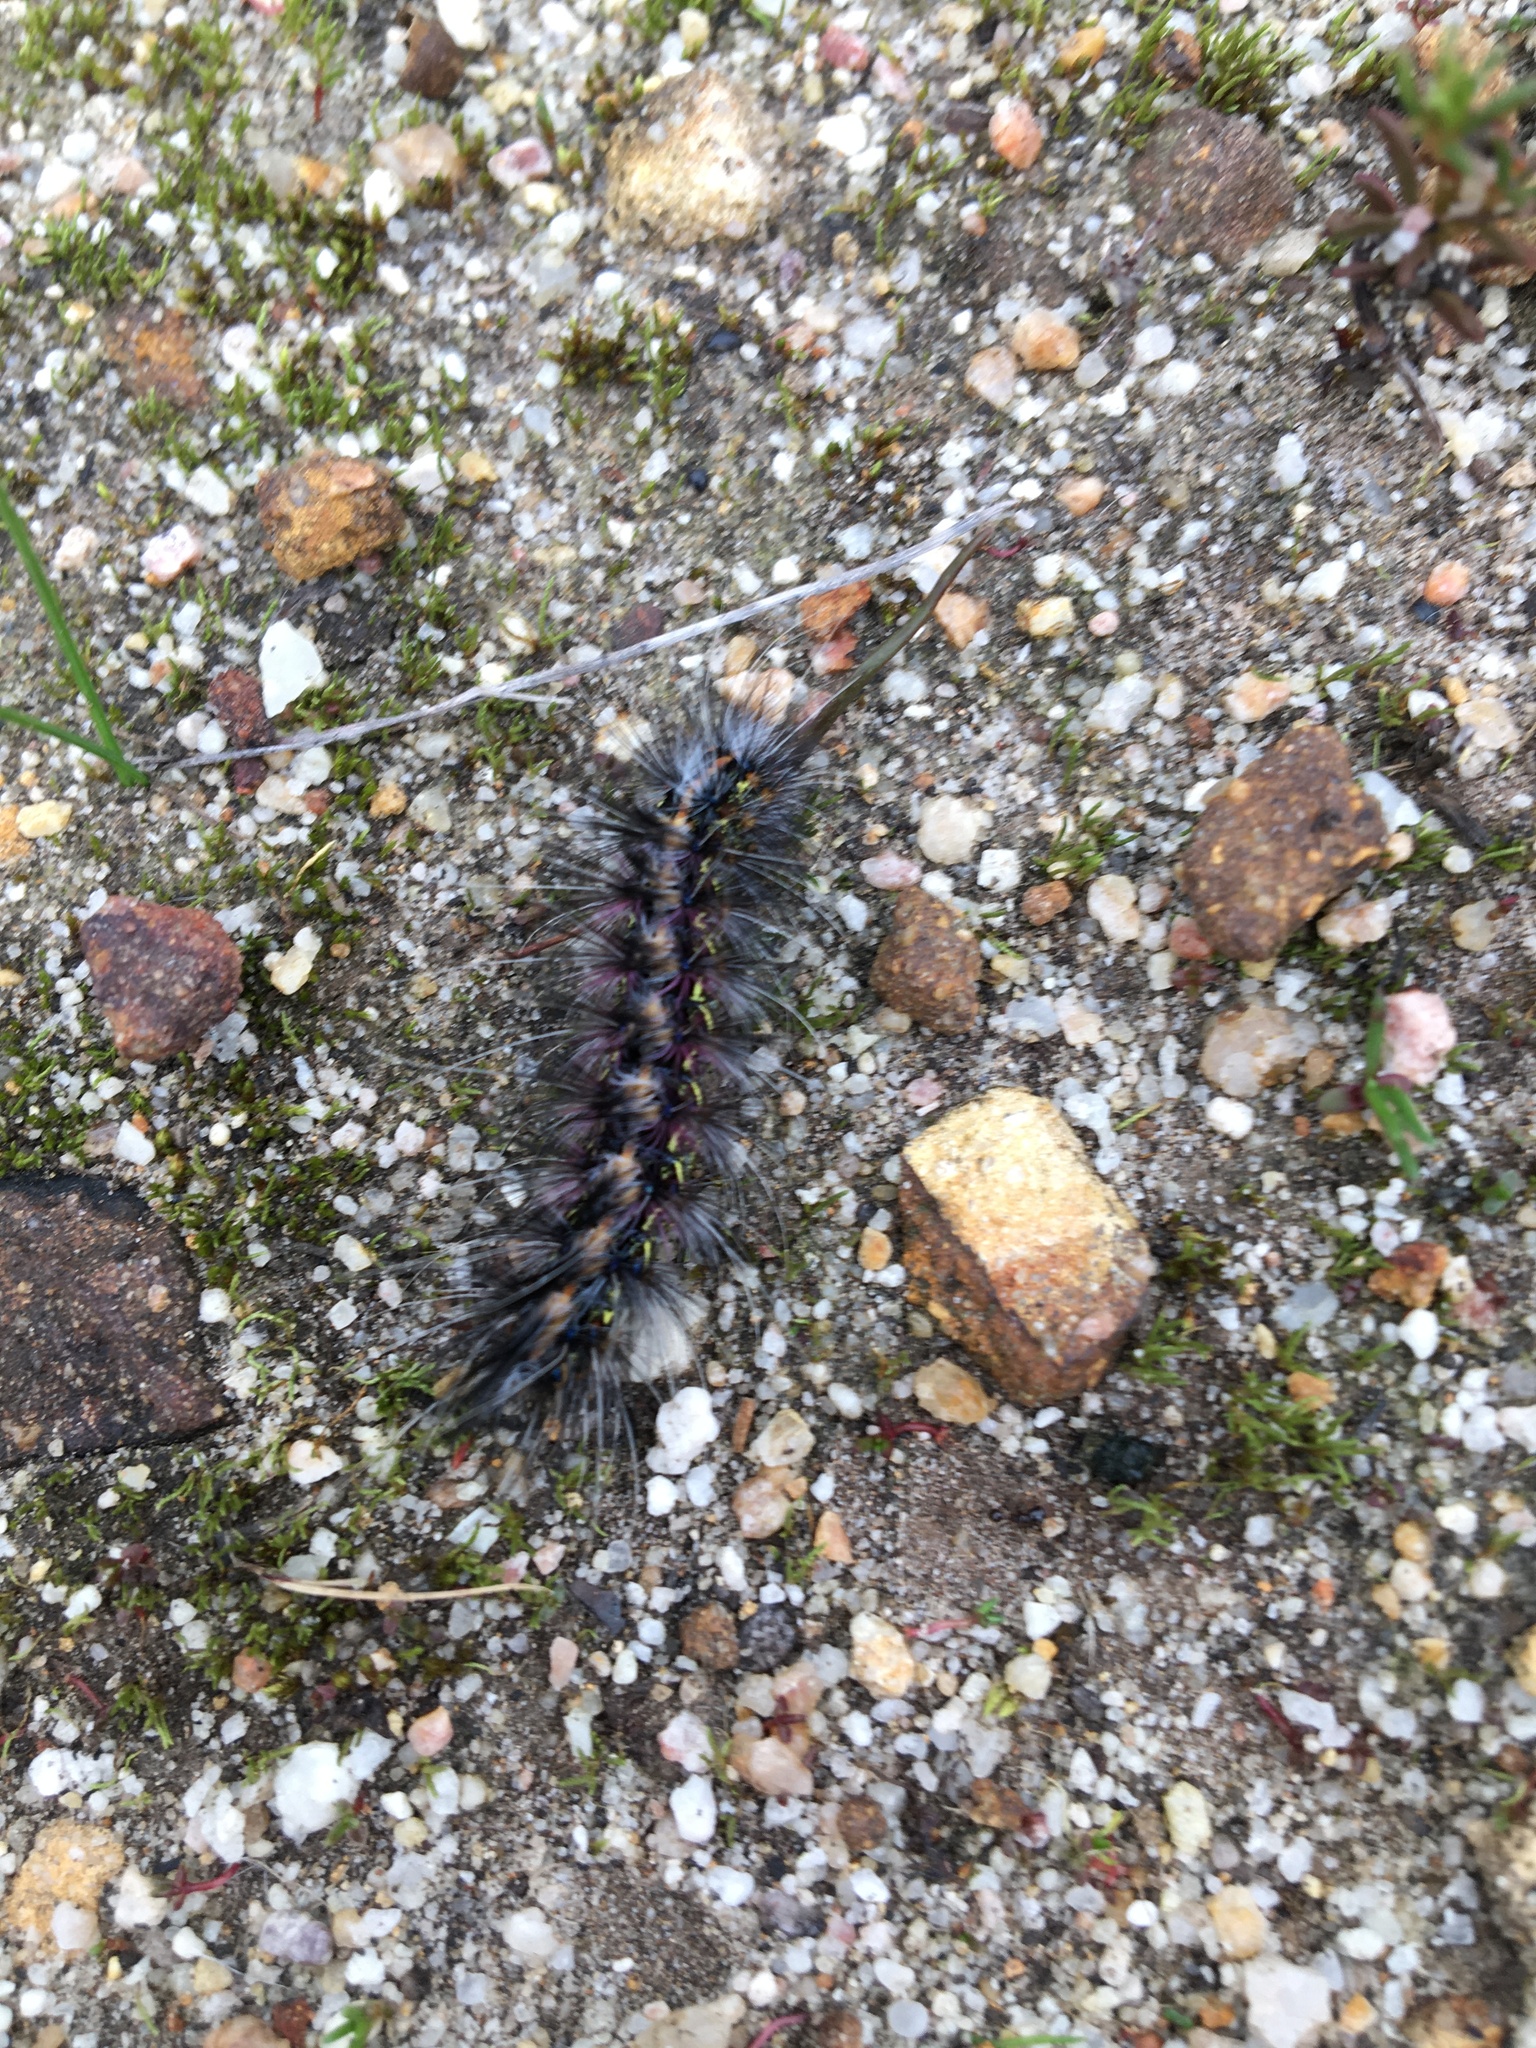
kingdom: Animalia
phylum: Arthropoda
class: Insecta
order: Lepidoptera
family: Erebidae
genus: Paralacydes
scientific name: Paralacydes vocula
